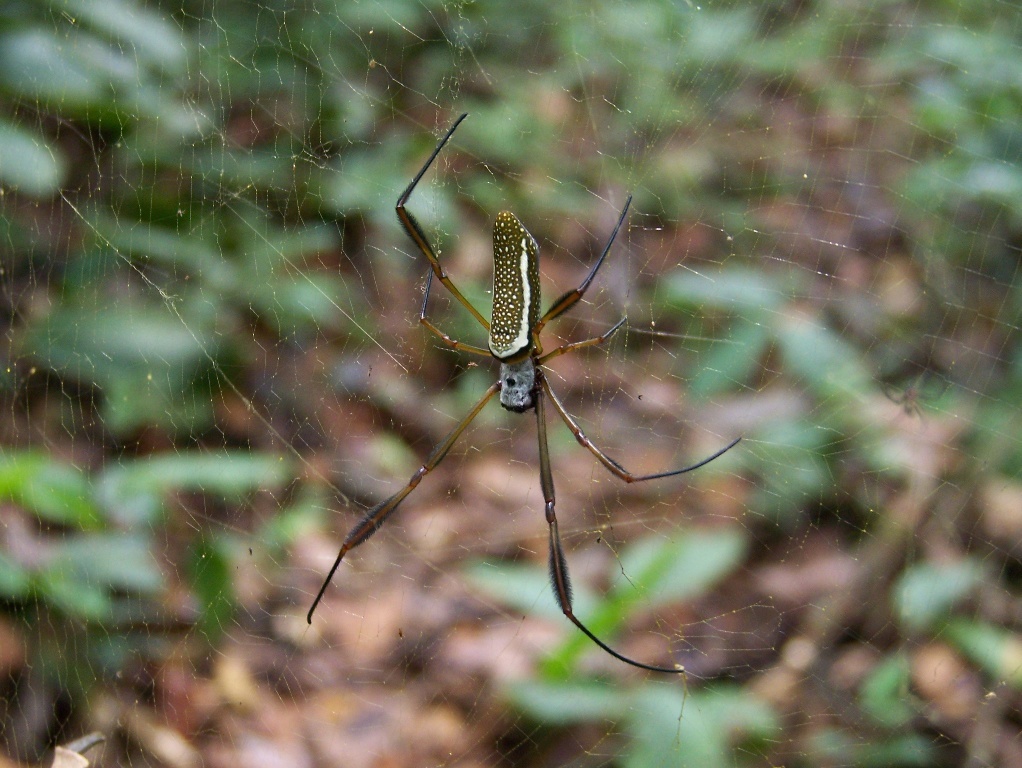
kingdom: Animalia
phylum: Arthropoda
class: Arachnida
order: Araneae
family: Araneidae
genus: Trichonephila
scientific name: Trichonephila clavipes
